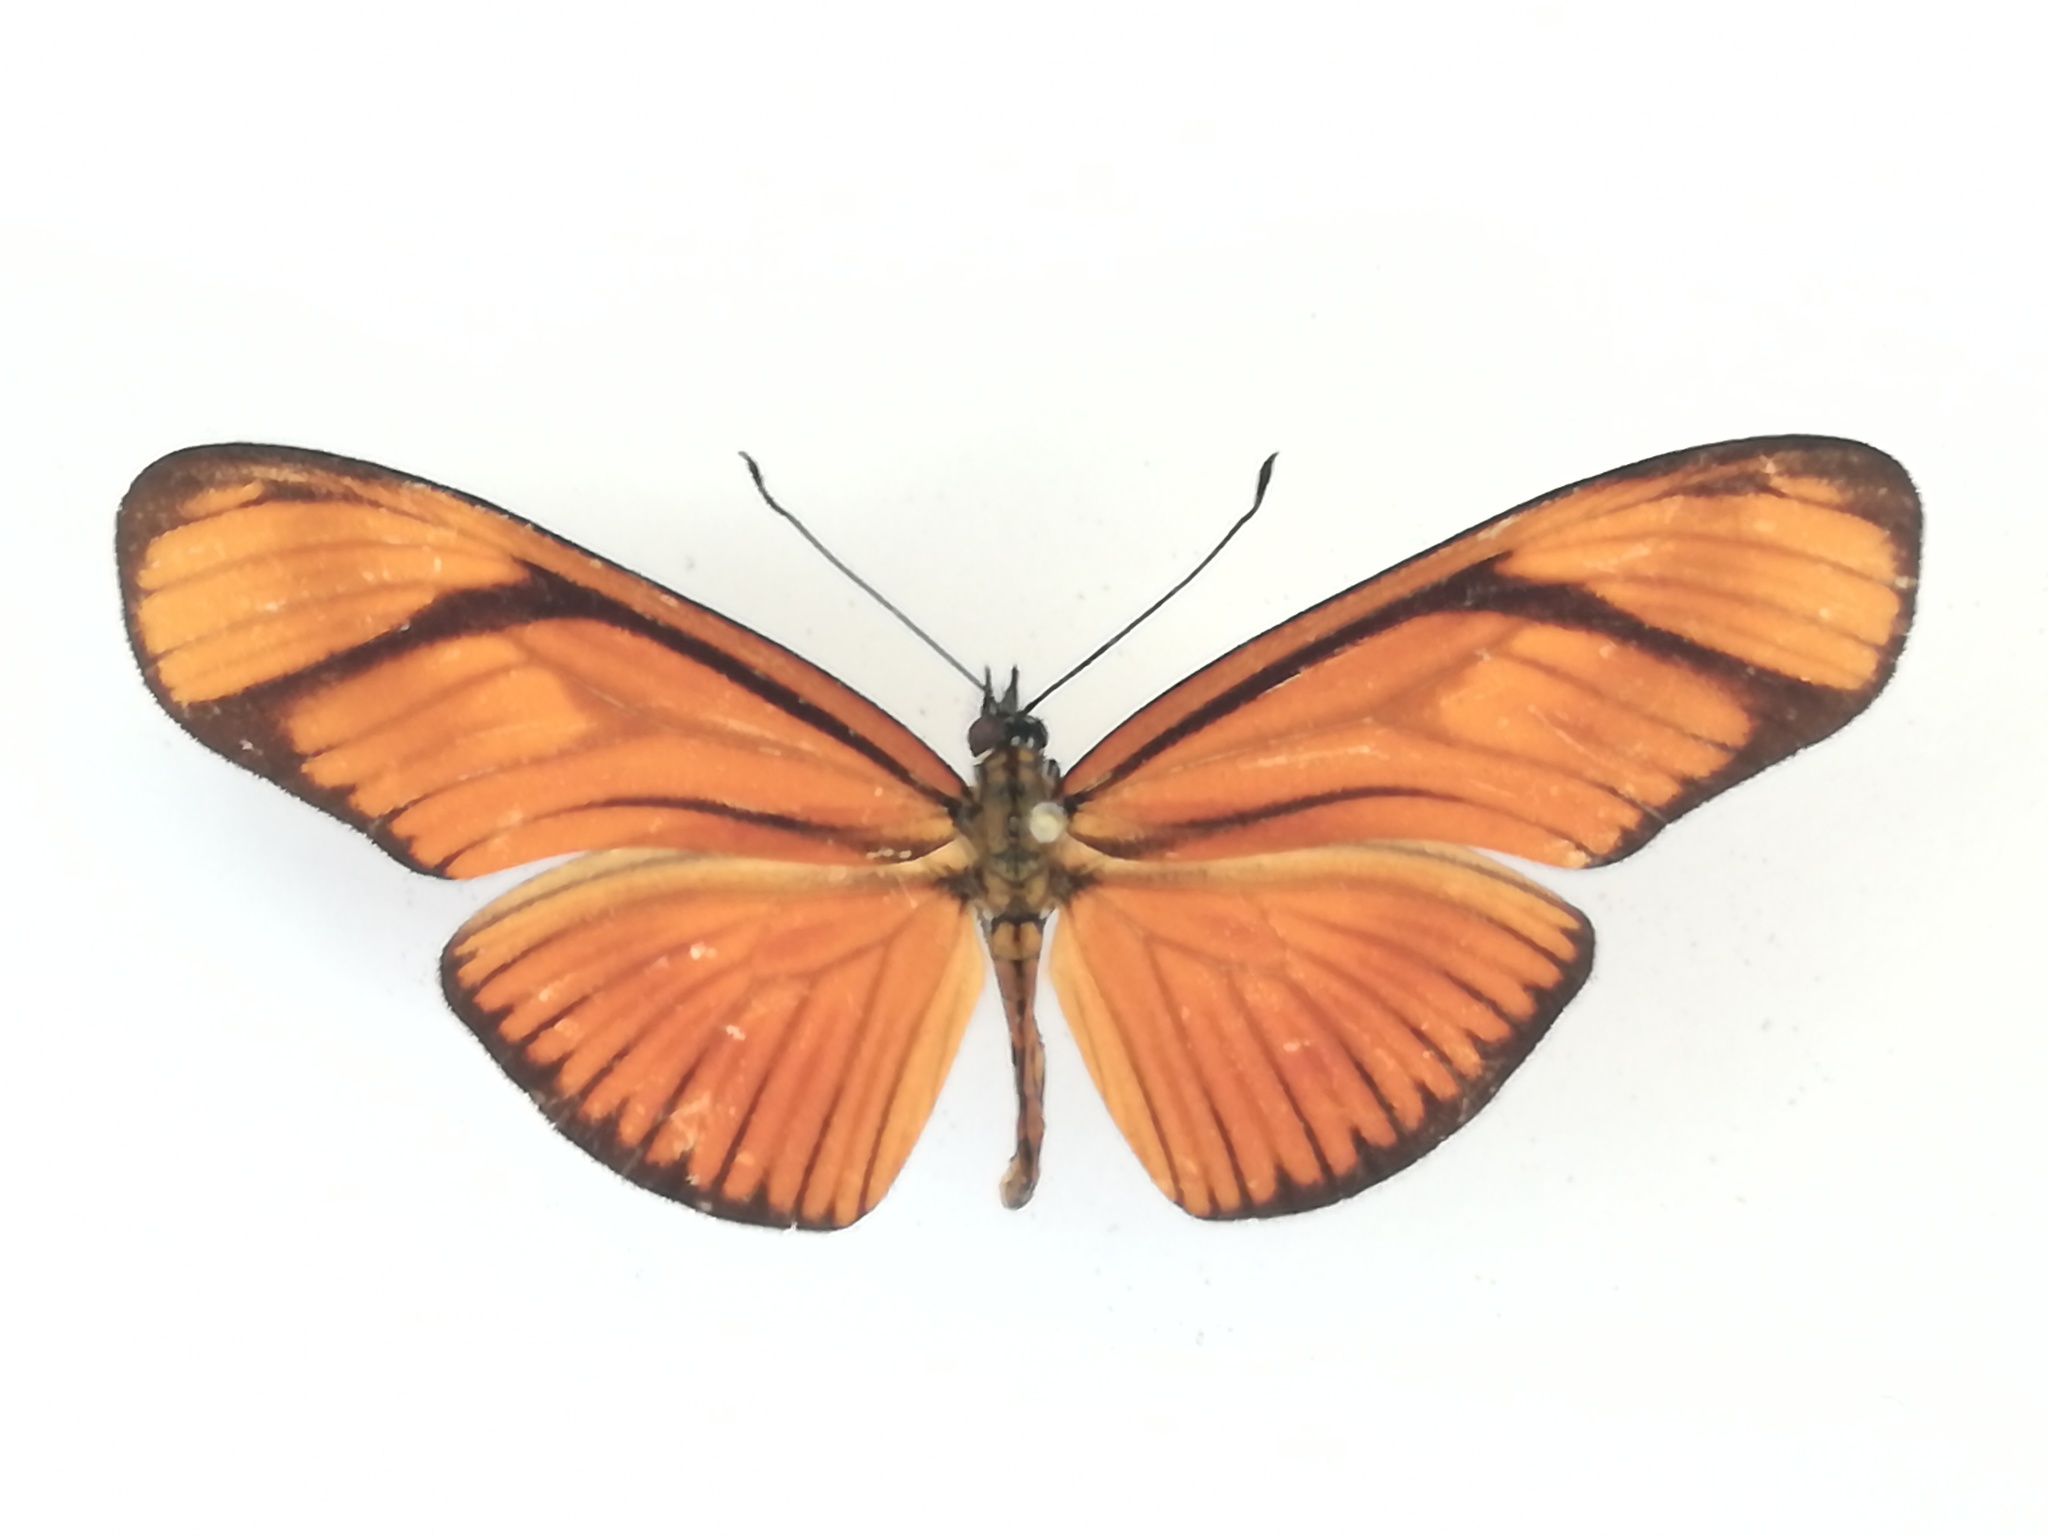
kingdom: Animalia
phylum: Arthropoda
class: Insecta
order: Lepidoptera
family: Nymphalidae
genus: Heliconius
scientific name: Heliconius aliphera
